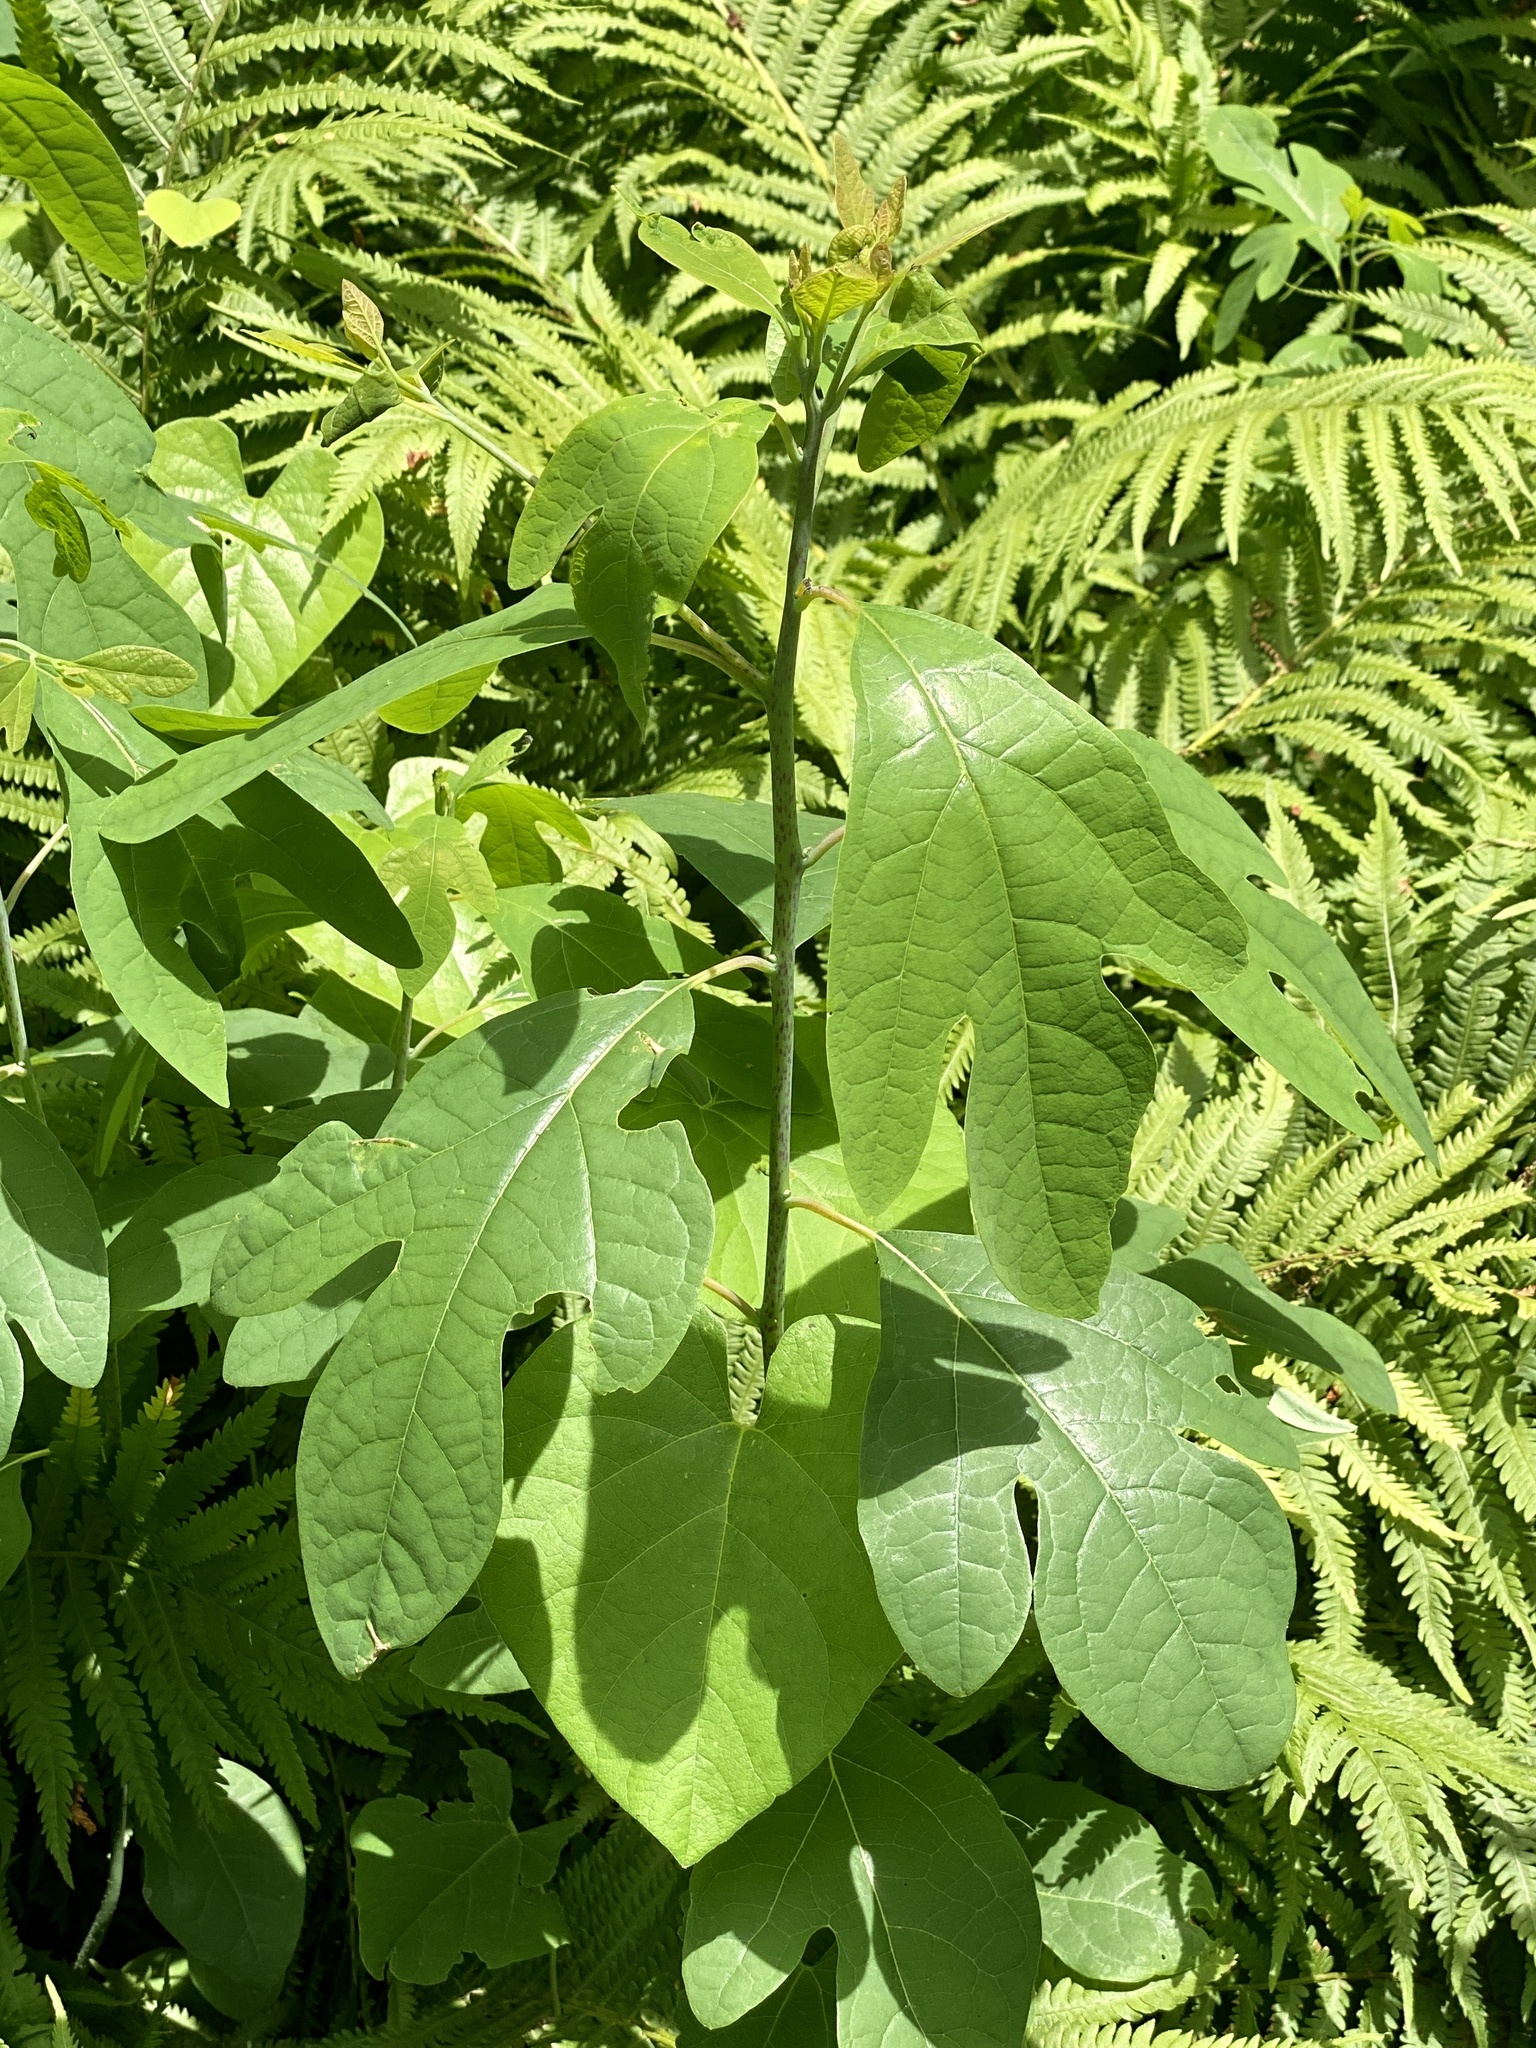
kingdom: Plantae
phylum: Tracheophyta
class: Magnoliopsida
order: Laurales
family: Lauraceae
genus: Sassafras
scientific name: Sassafras albidum
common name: Sassafras
